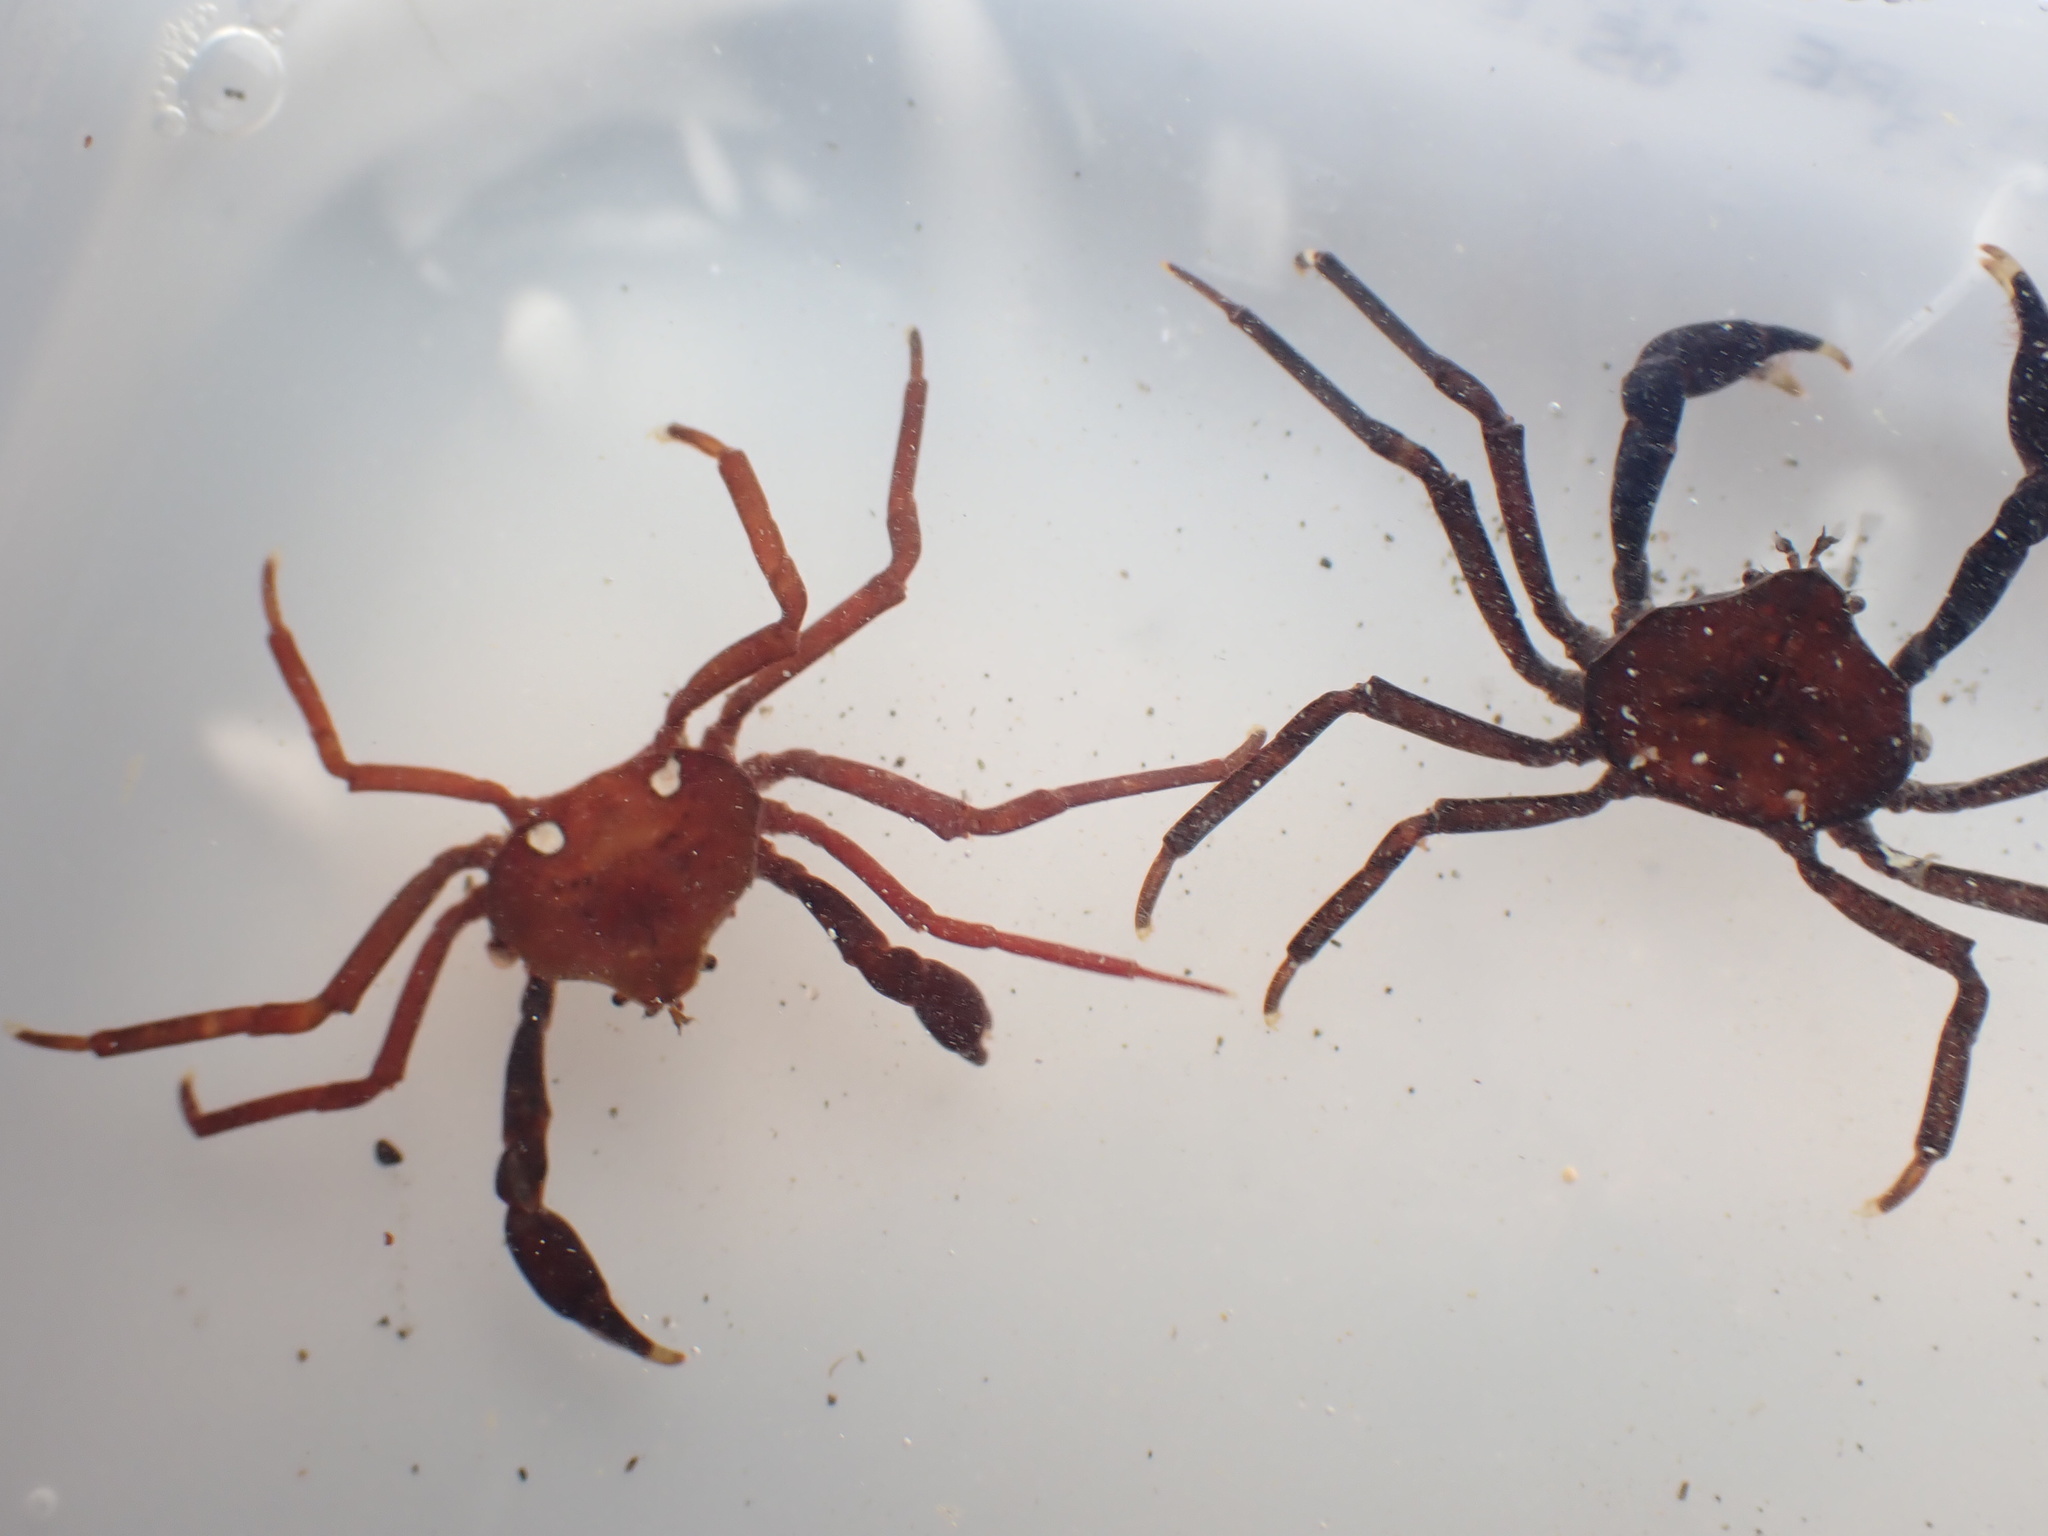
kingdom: Animalia
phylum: Arthropoda
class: Malacostraca
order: Decapoda
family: Hymenosomatidae
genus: Elamena
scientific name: Elamena producta
